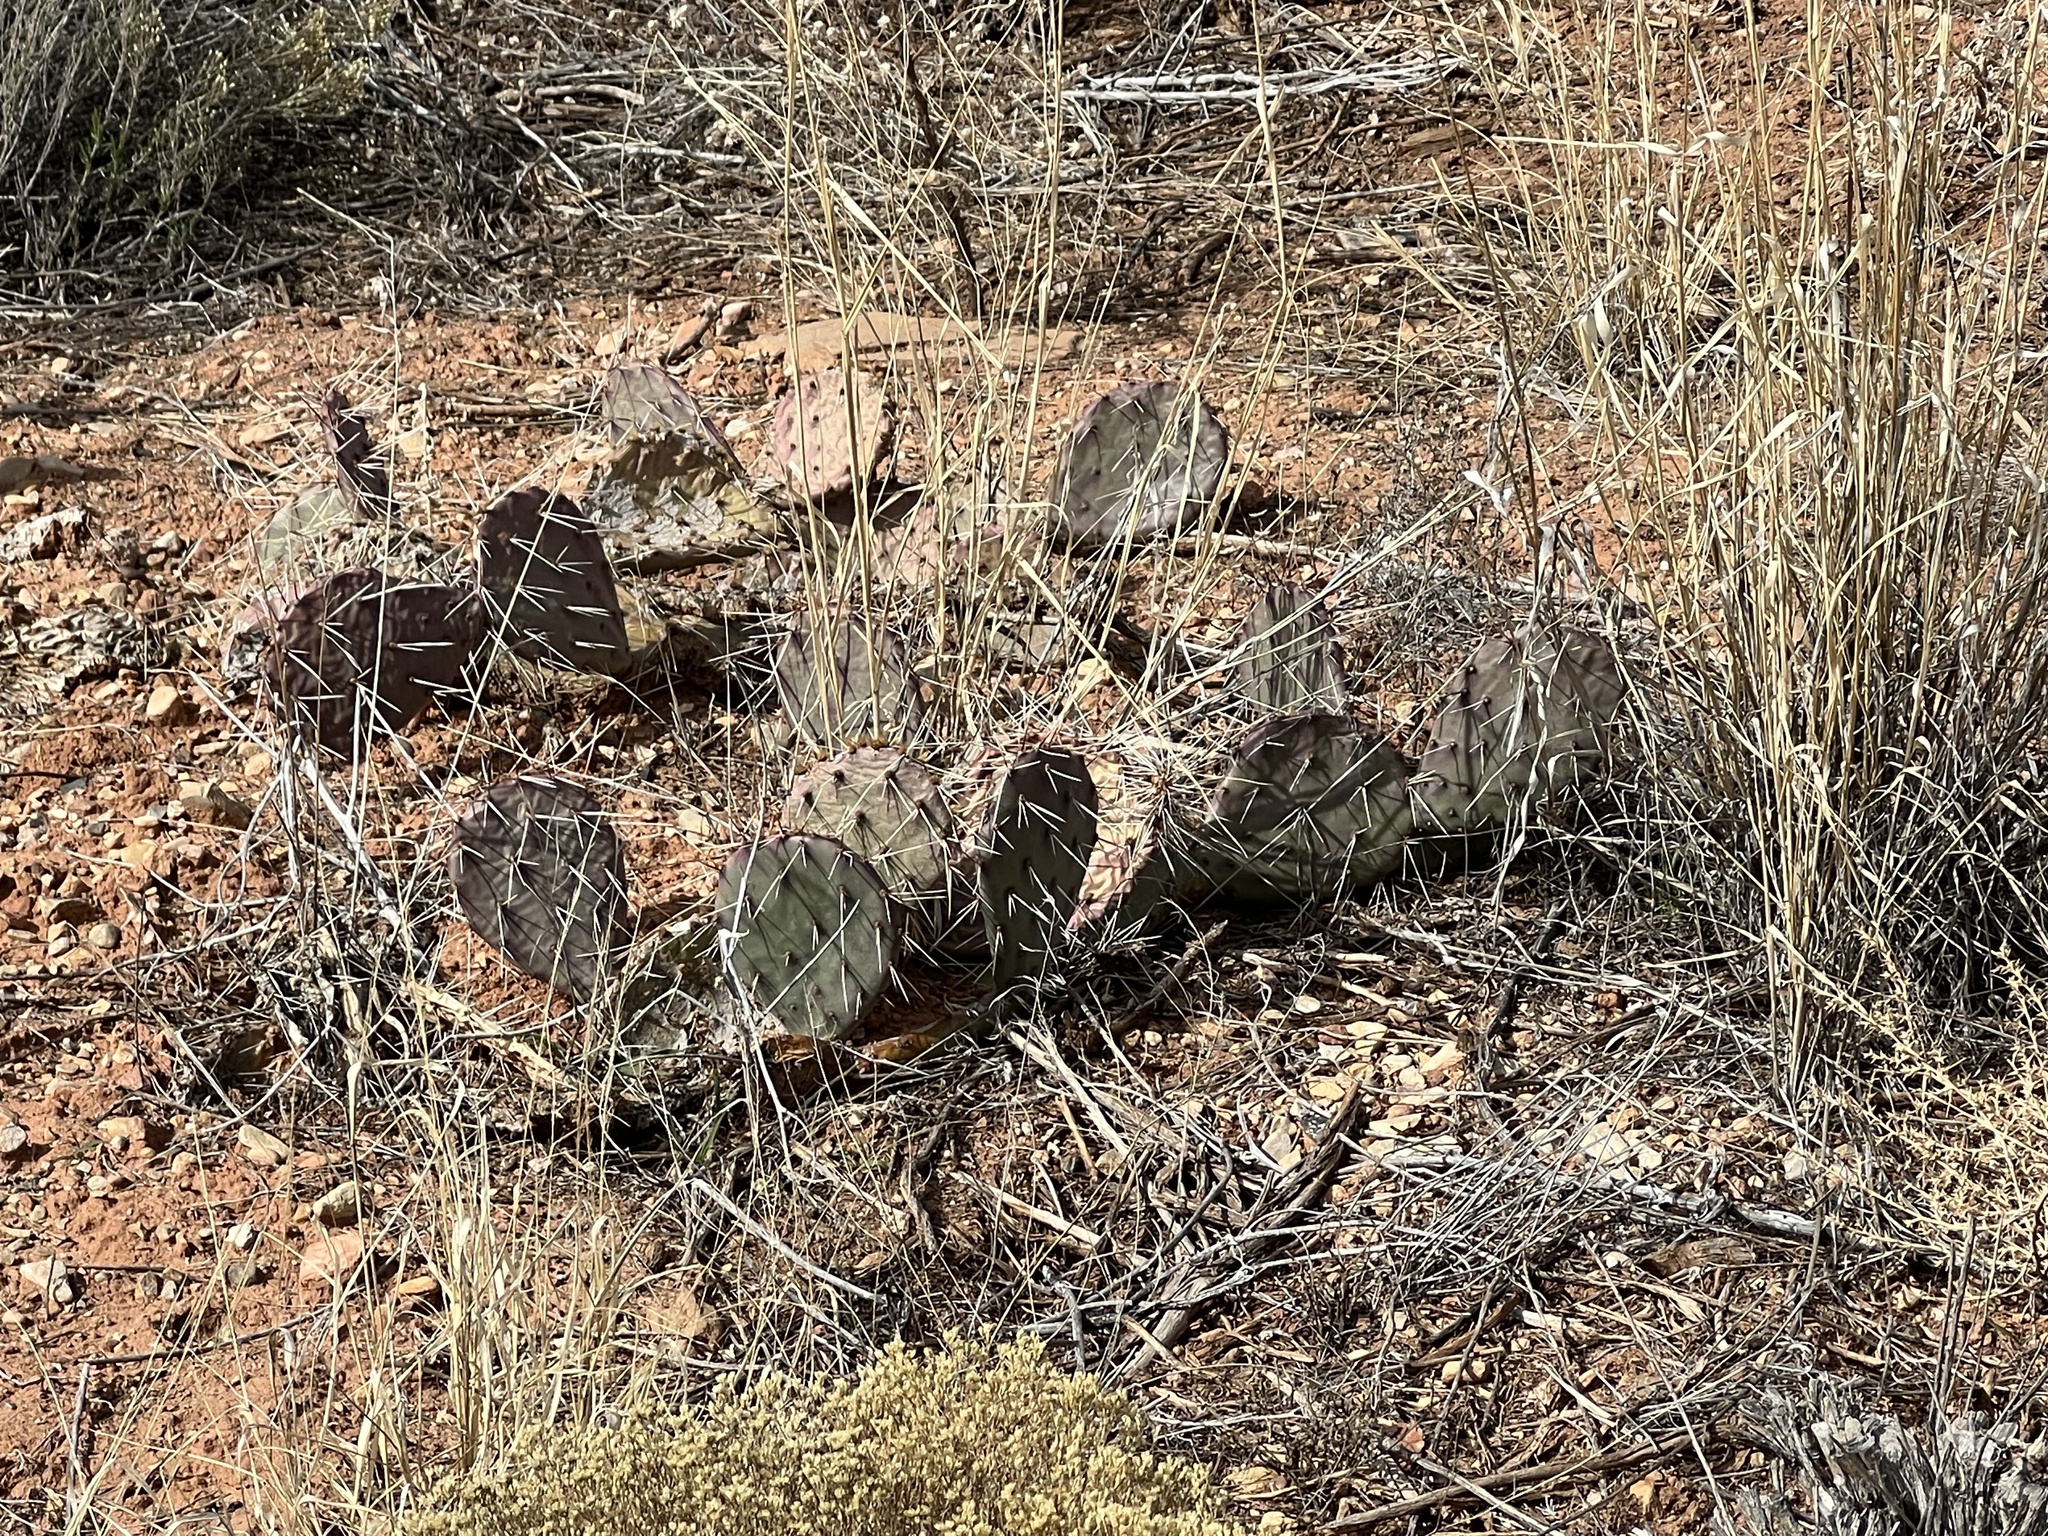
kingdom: Plantae
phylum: Tracheophyta
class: Magnoliopsida
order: Caryophyllales
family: Cactaceae
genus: Opuntia
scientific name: Opuntia phaeacantha
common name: New mexico prickly-pear
